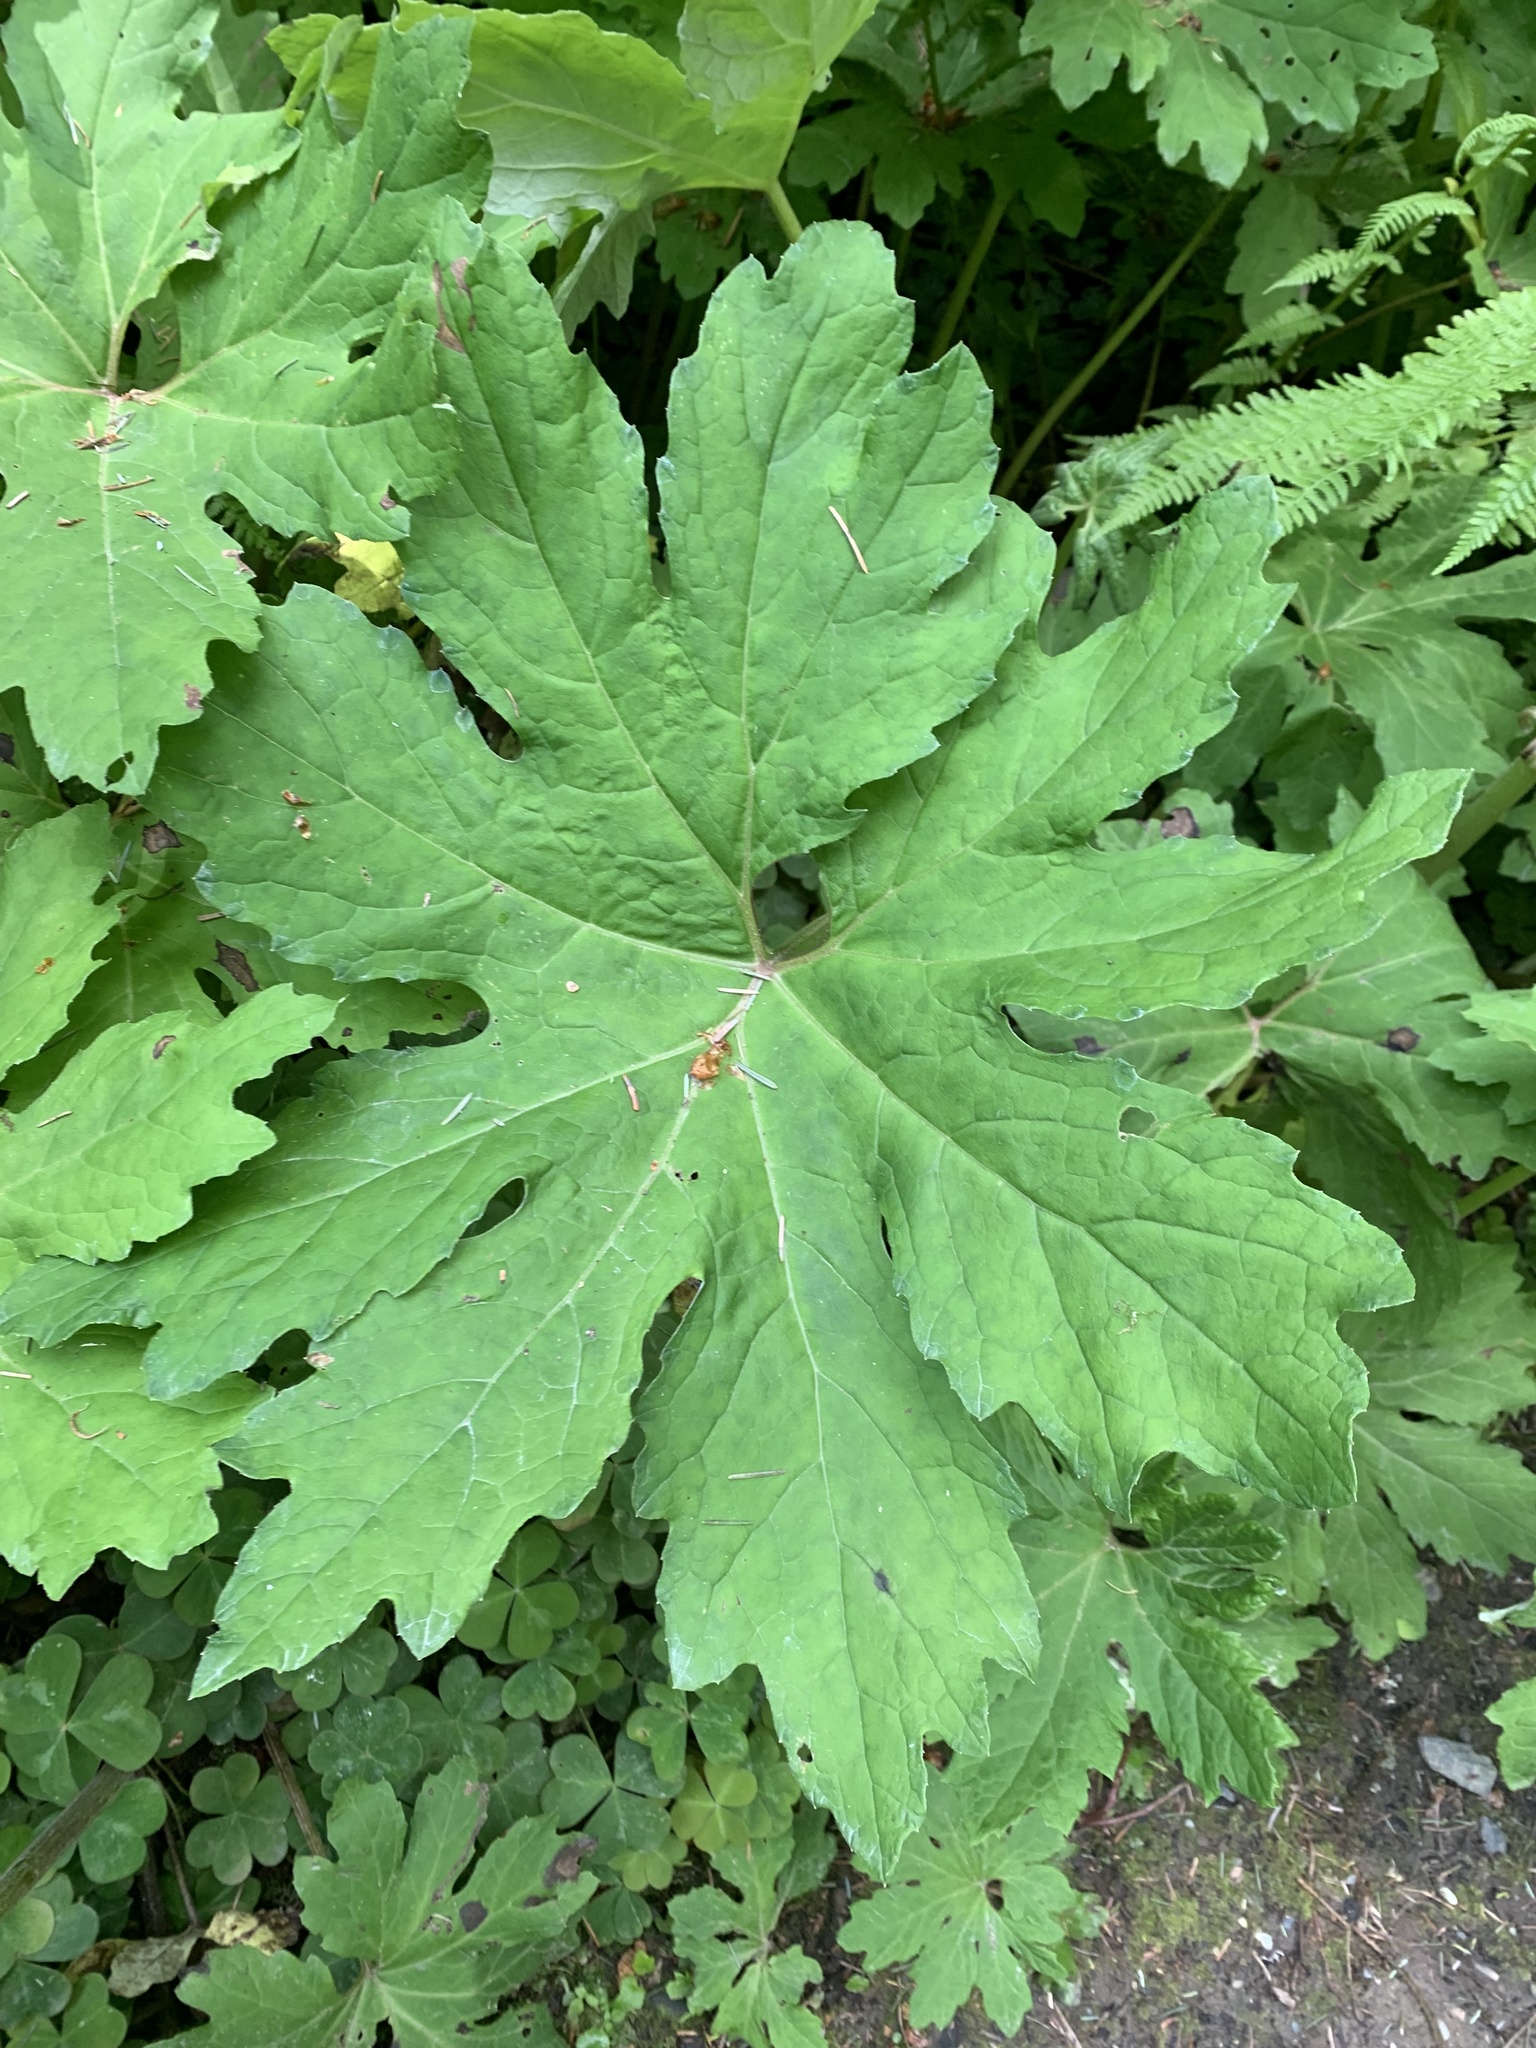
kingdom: Plantae
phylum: Tracheophyta
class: Magnoliopsida
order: Asterales
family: Asteraceae
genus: Petasites
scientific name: Petasites frigidus
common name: Arctic butterbur
